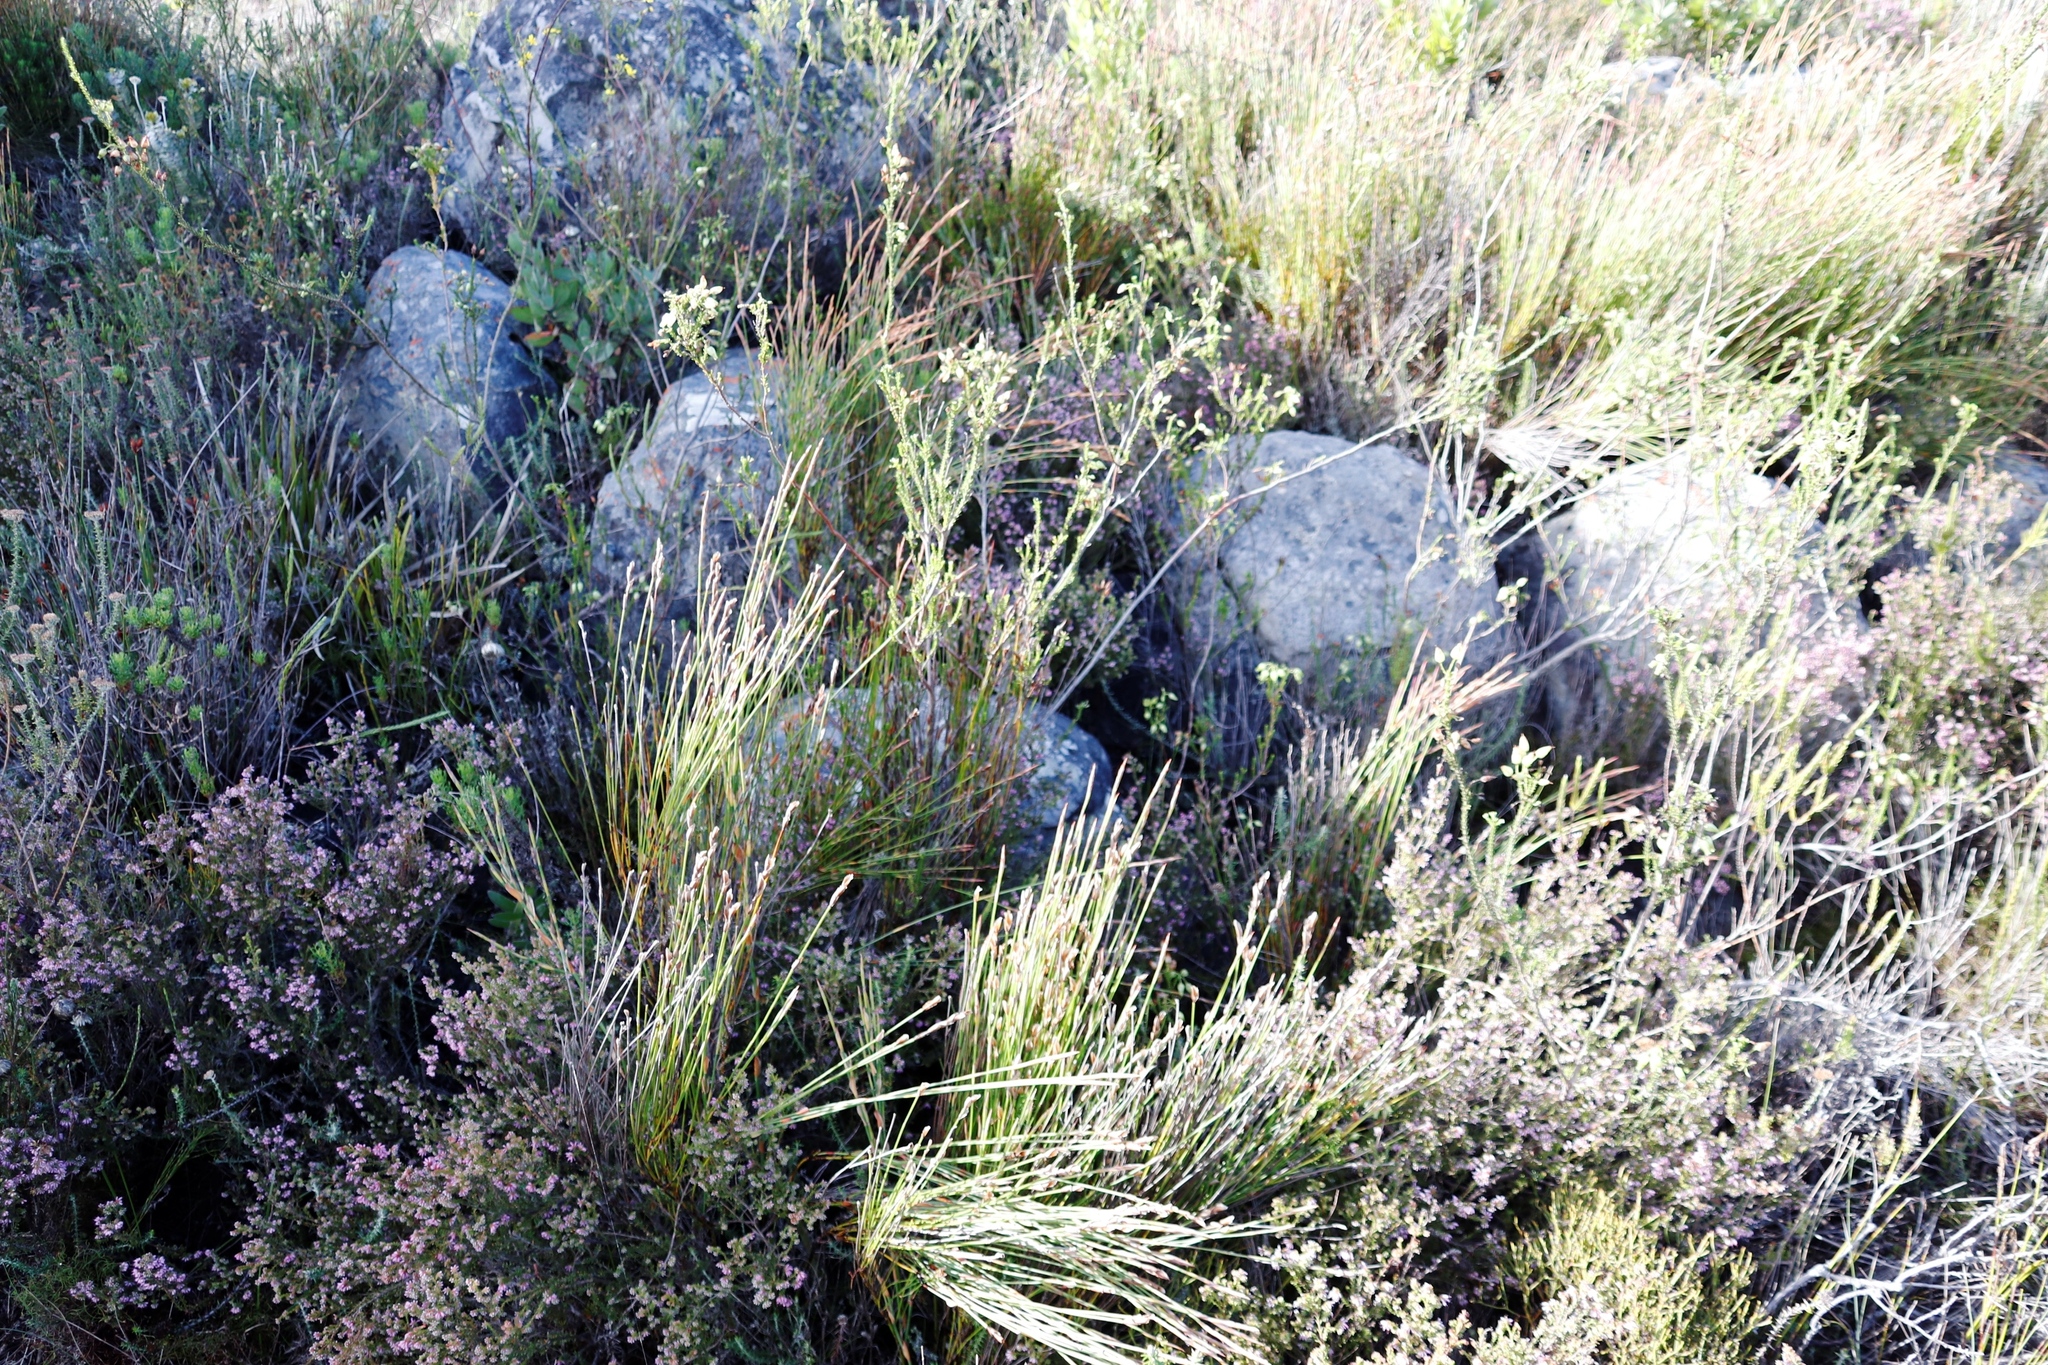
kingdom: Plantae
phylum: Tracheophyta
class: Magnoliopsida
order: Ericales
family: Ericaceae
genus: Erica
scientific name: Erica urna-viridis
